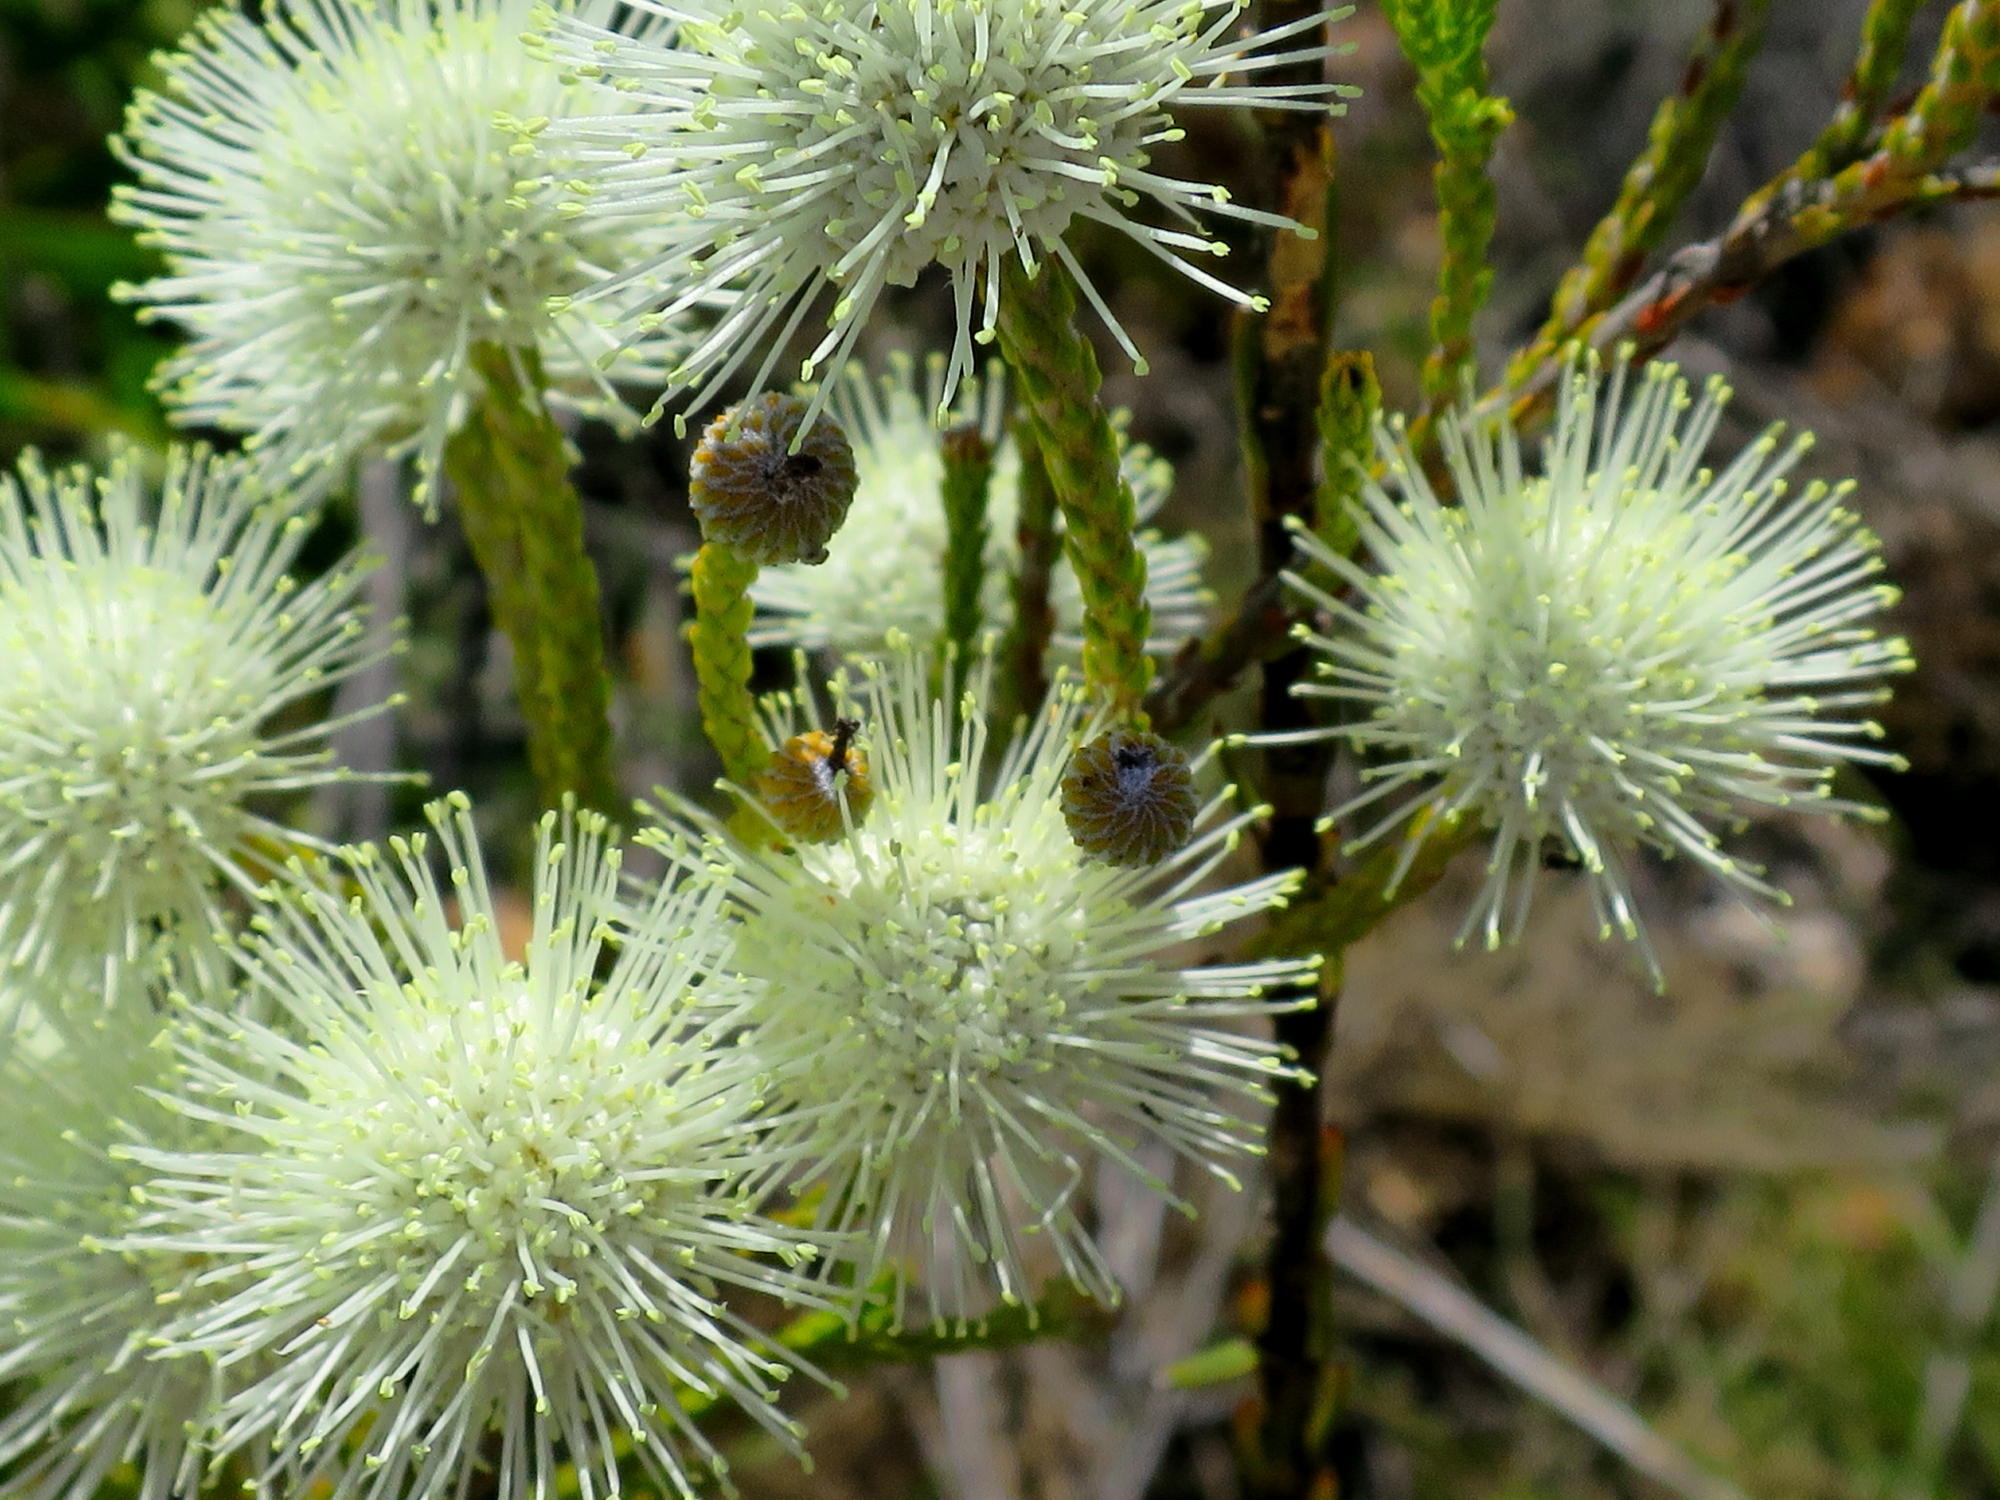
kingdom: Plantae
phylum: Tracheophyta
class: Magnoliopsida
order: Bruniales
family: Bruniaceae
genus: Brunia
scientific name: Brunia noduliflora
